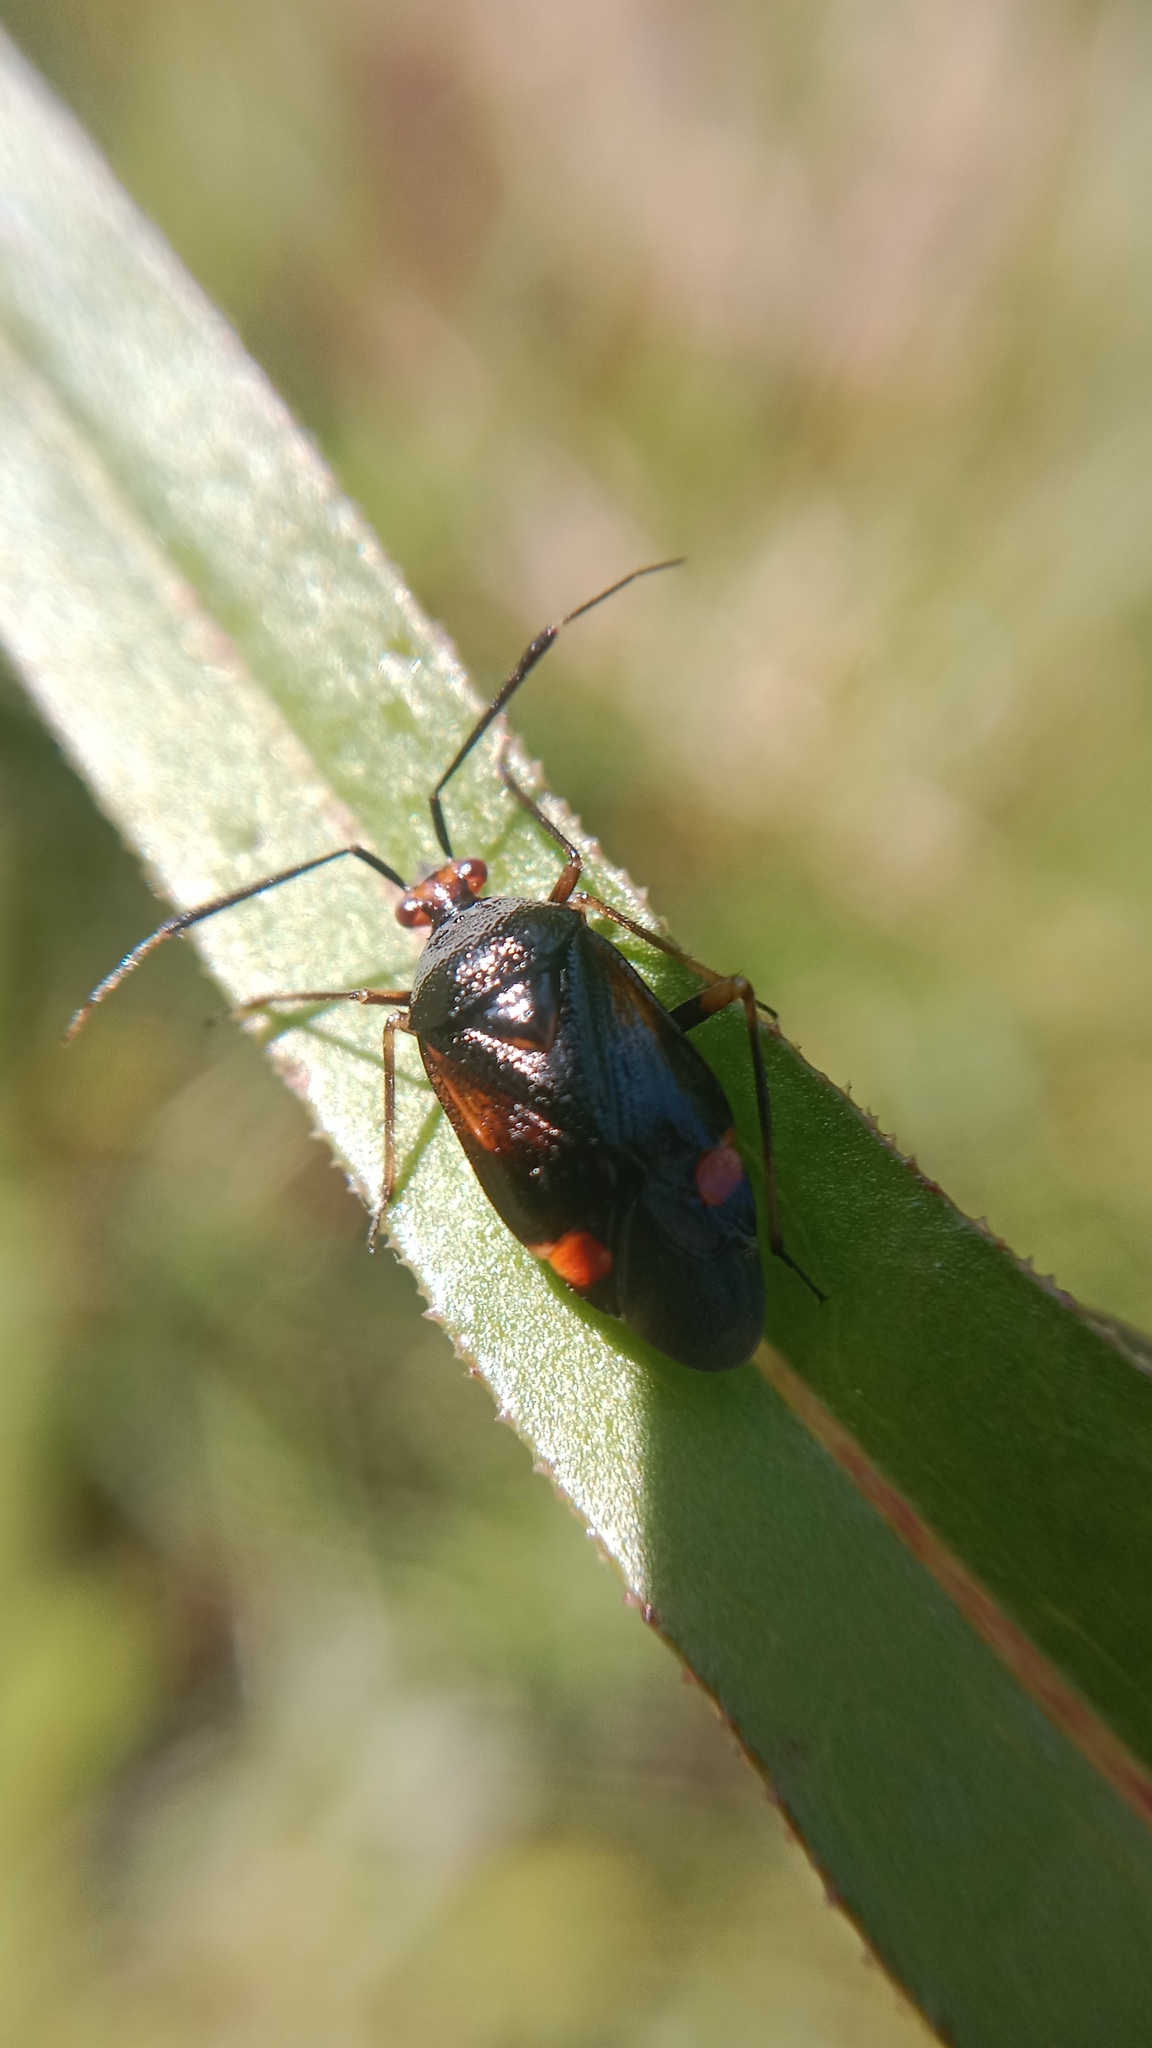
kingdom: Animalia
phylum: Arthropoda
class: Insecta
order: Hemiptera
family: Miridae
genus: Deraeocoris
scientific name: Deraeocoris ruber
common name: Plant bug
